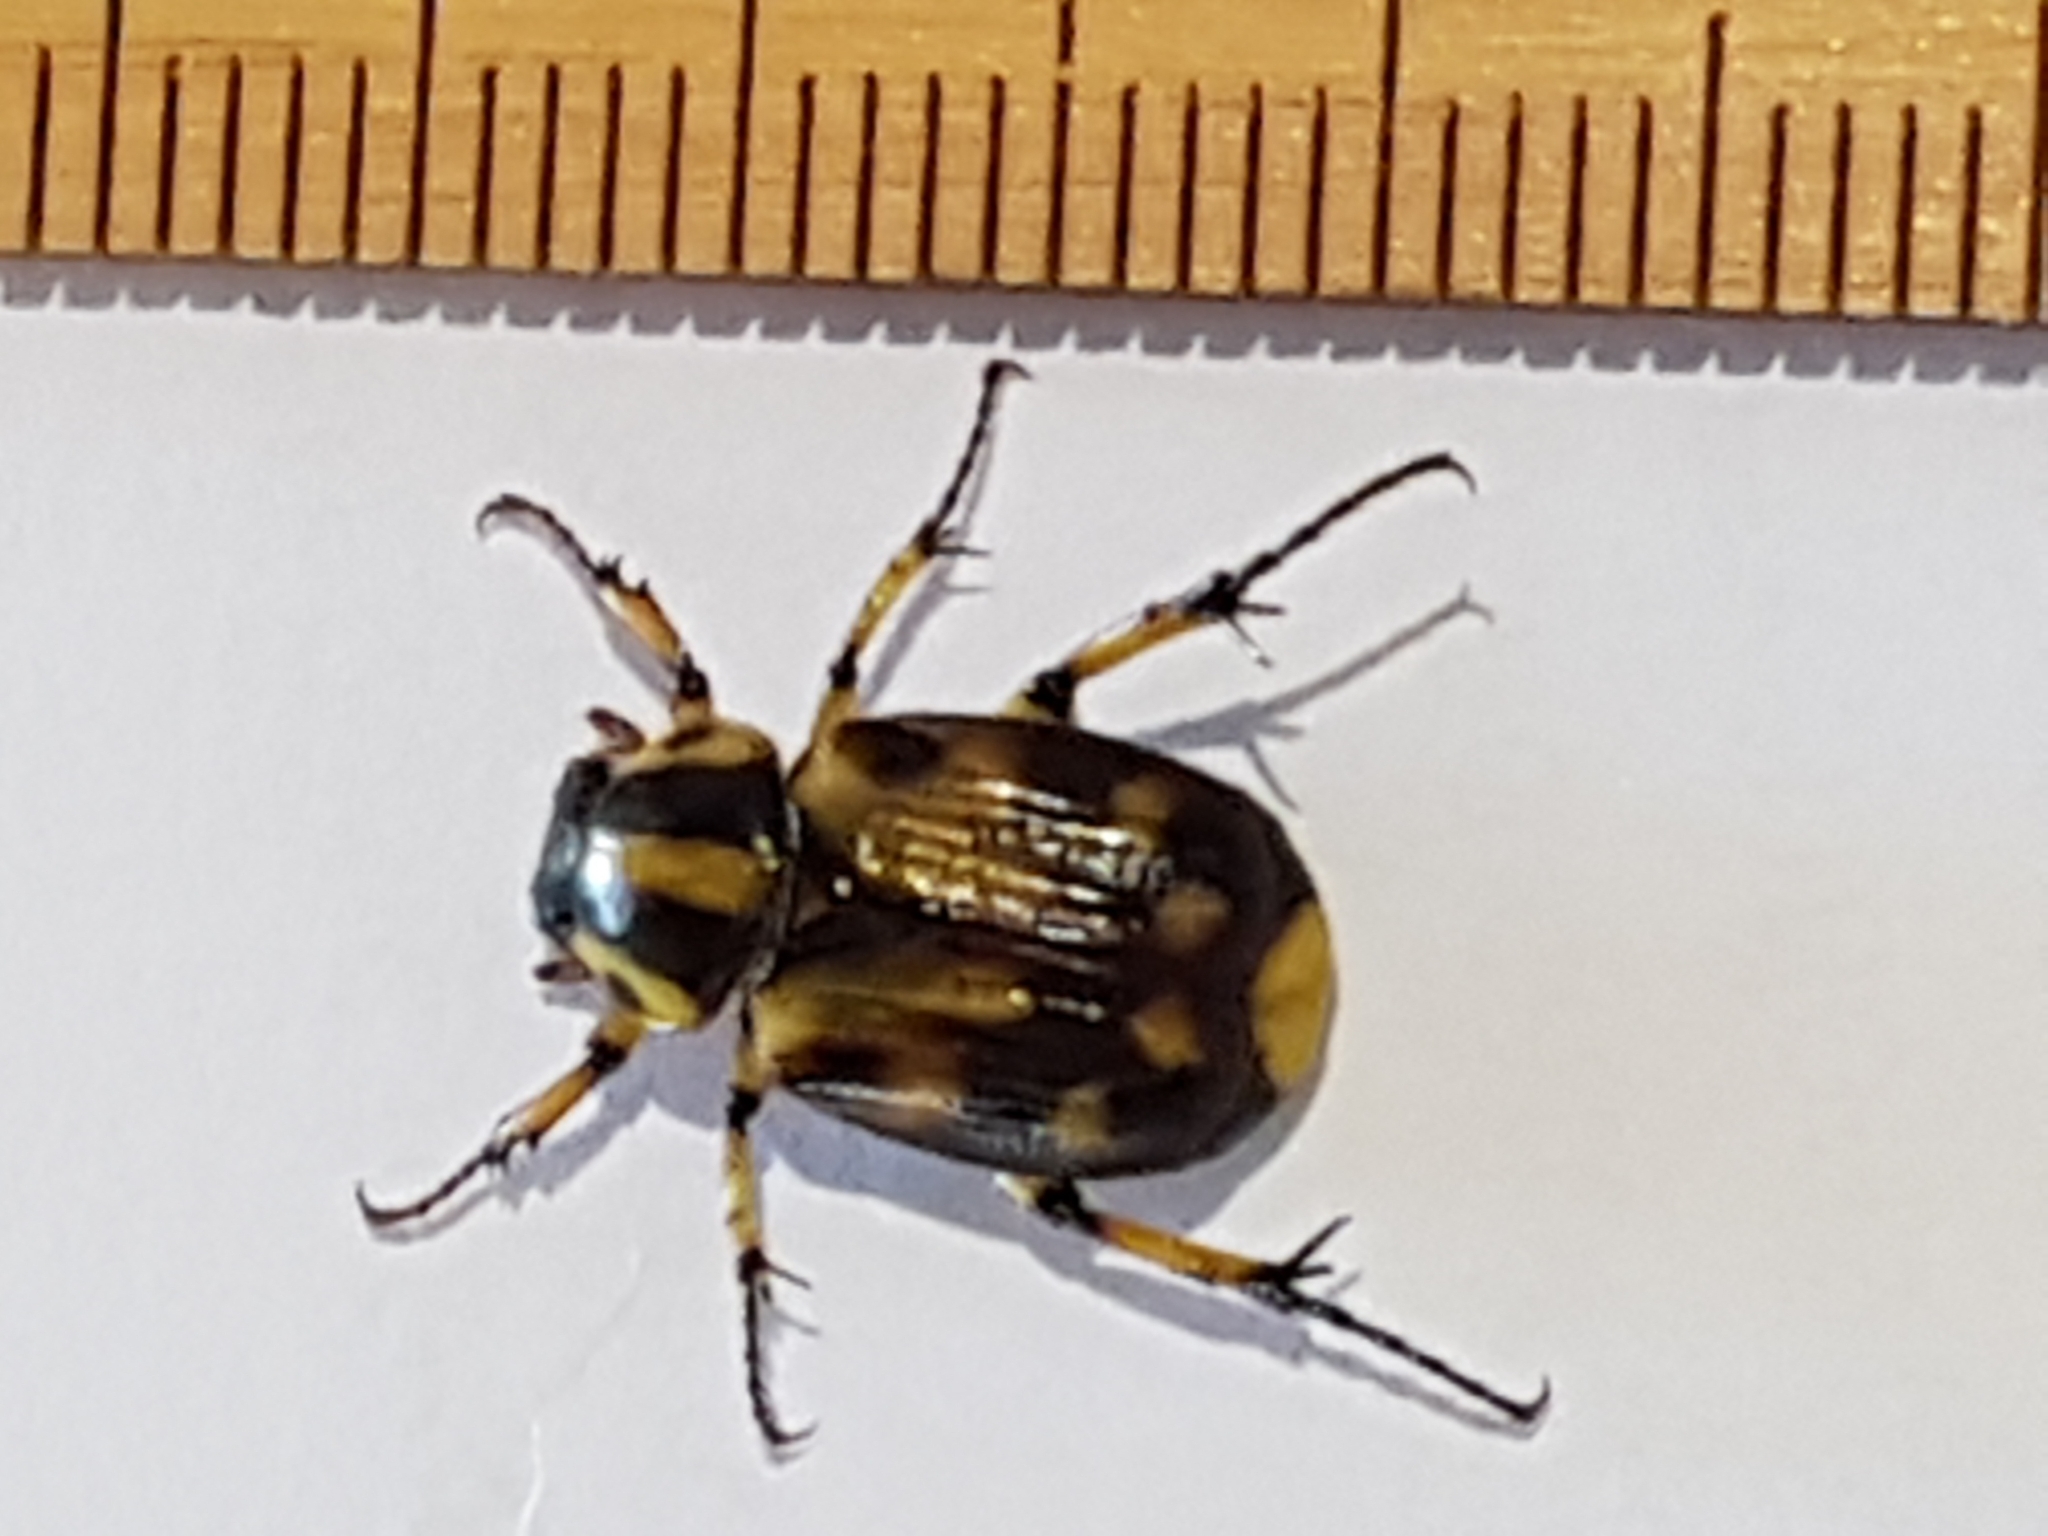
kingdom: Animalia
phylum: Arthropoda
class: Insecta
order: Coleoptera
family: Scarabaeidae
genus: Stripsipher
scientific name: Stripsipher zebra
